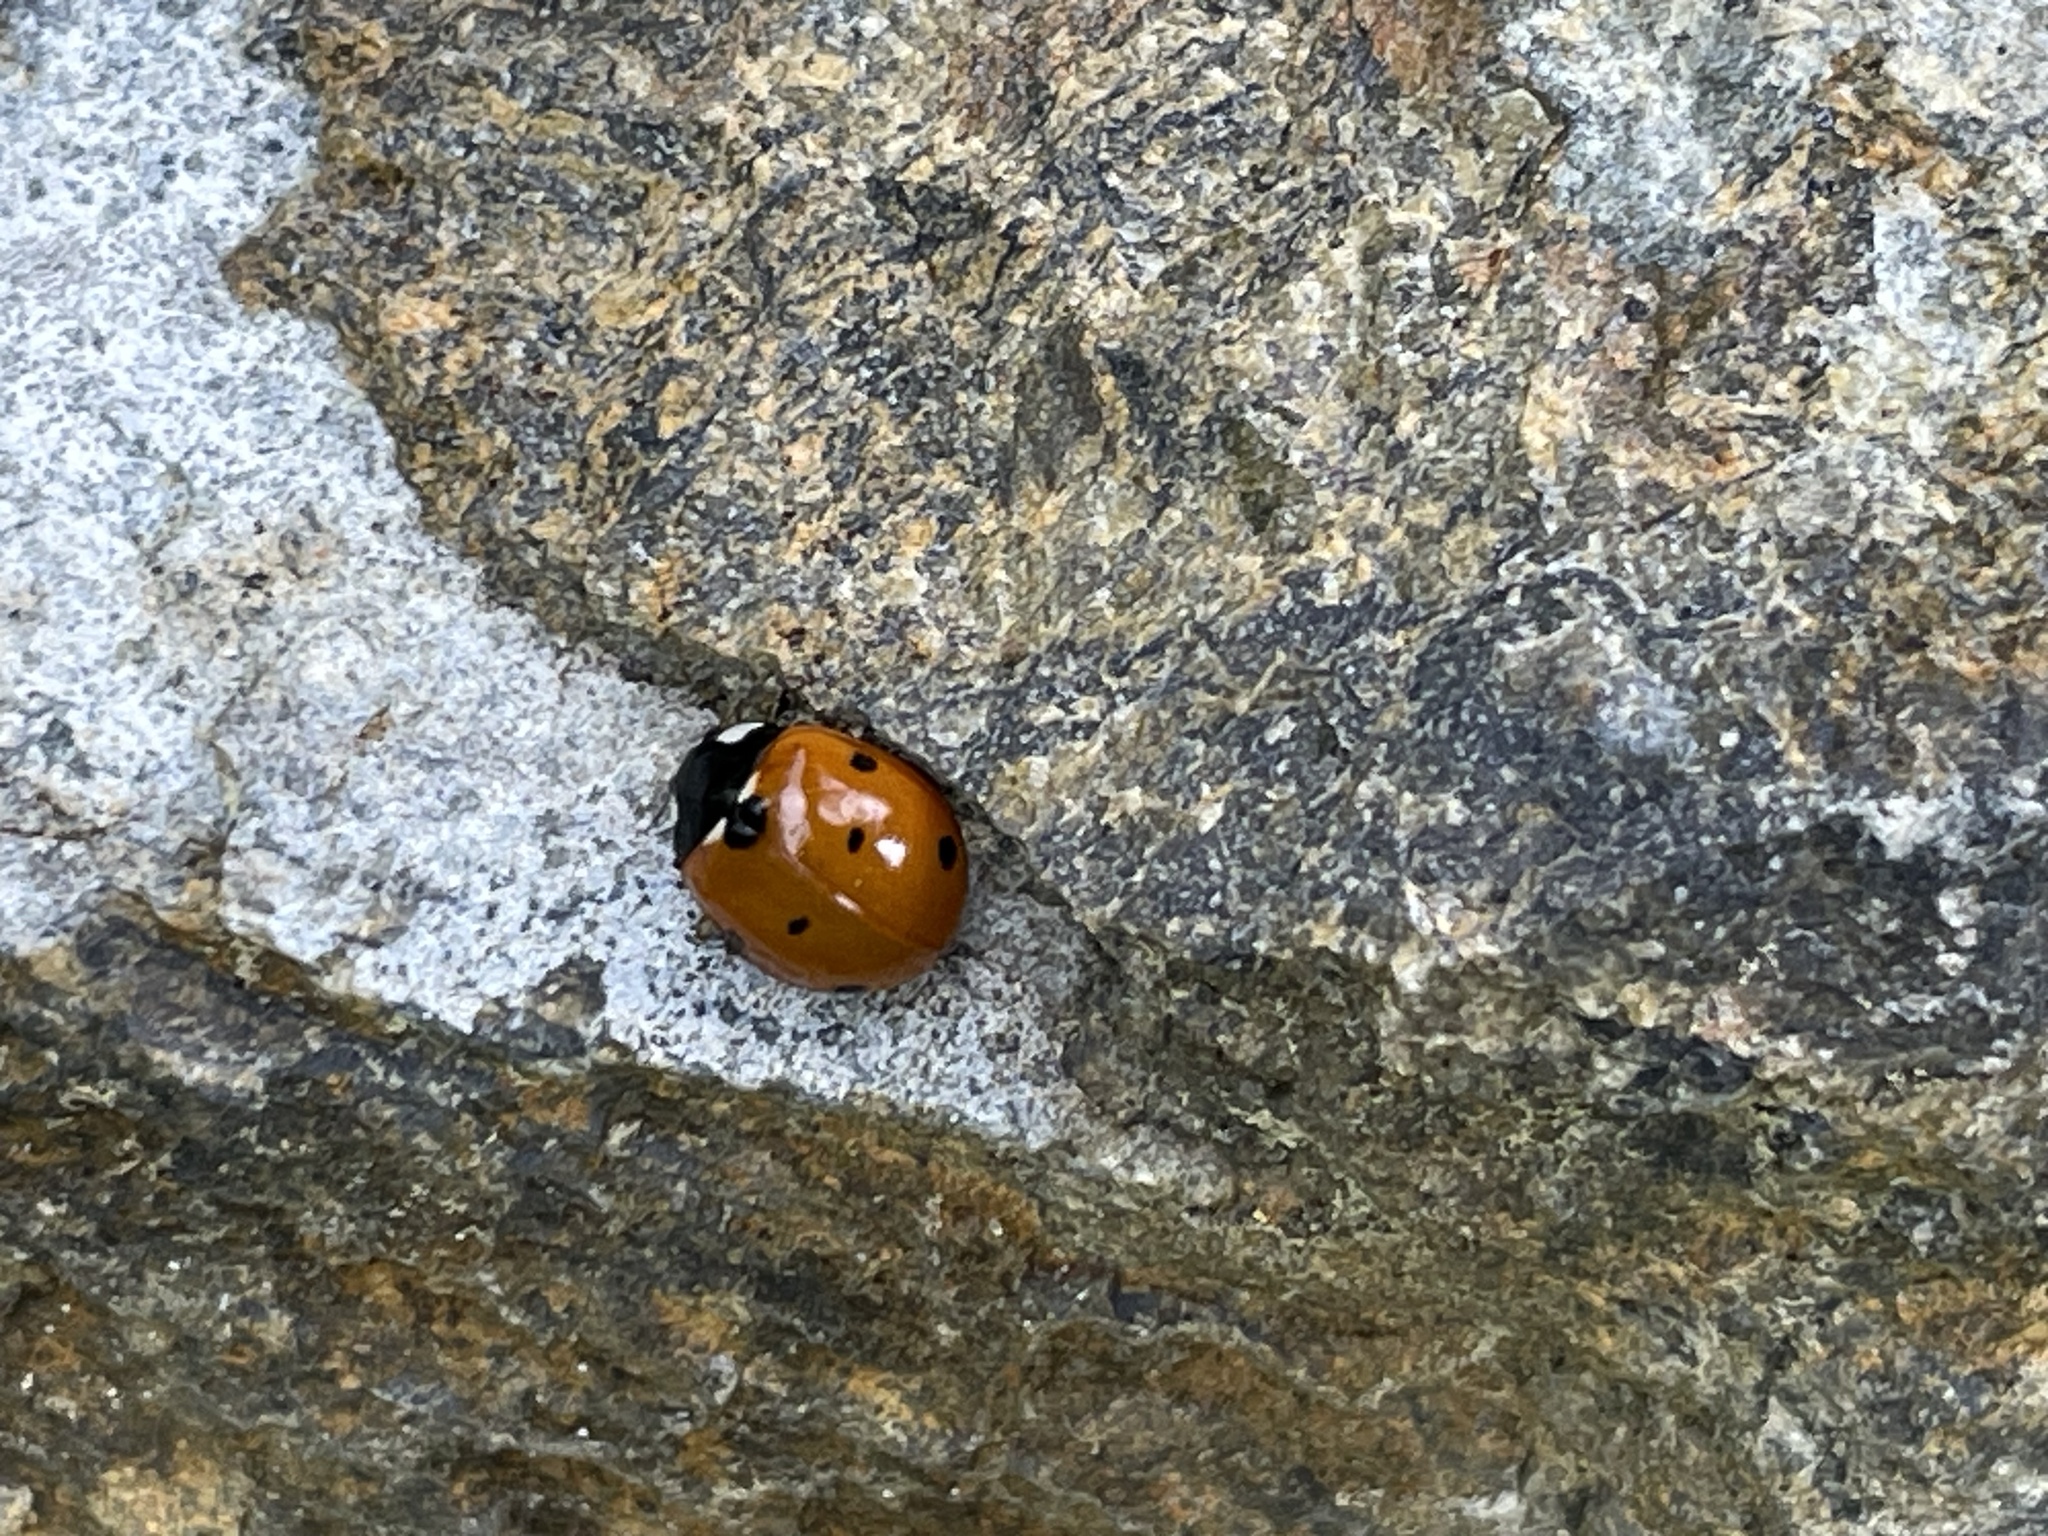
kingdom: Animalia
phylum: Arthropoda
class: Insecta
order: Coleoptera
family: Coccinellidae
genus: Coccinella
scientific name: Coccinella septempunctata
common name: Sevenspotted lady beetle
